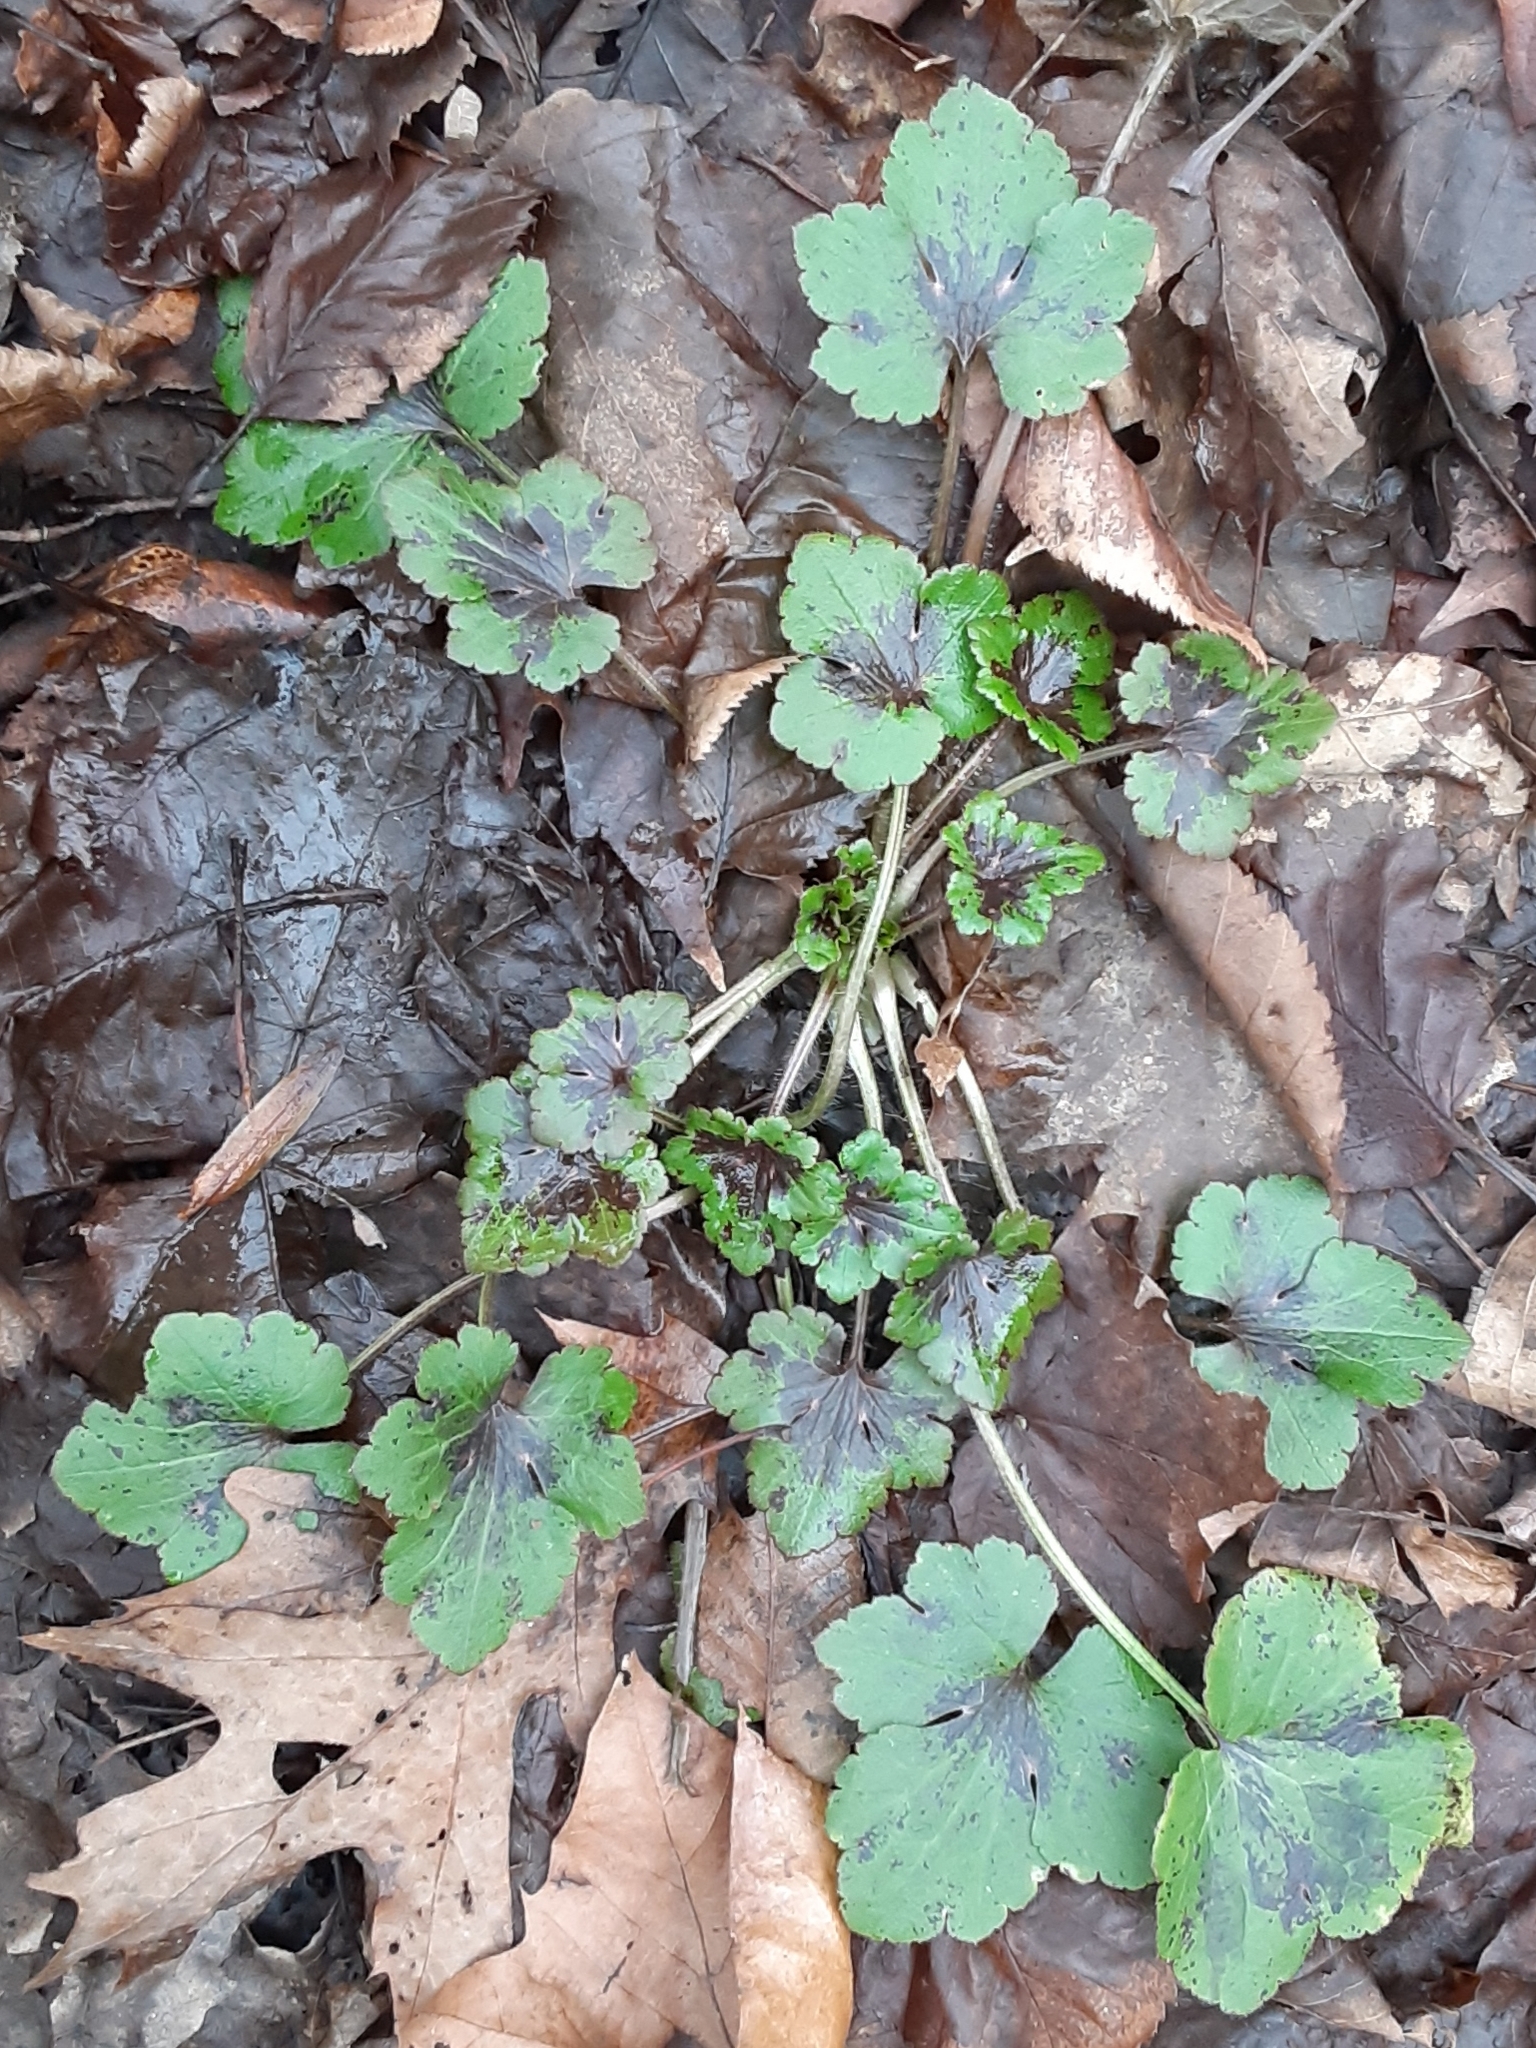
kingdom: Plantae
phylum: Tracheophyta
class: Magnoliopsida
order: Ranunculales
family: Ranunculaceae
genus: Ranunculus
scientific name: Ranunculus recurvatus
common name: Blisterwort
